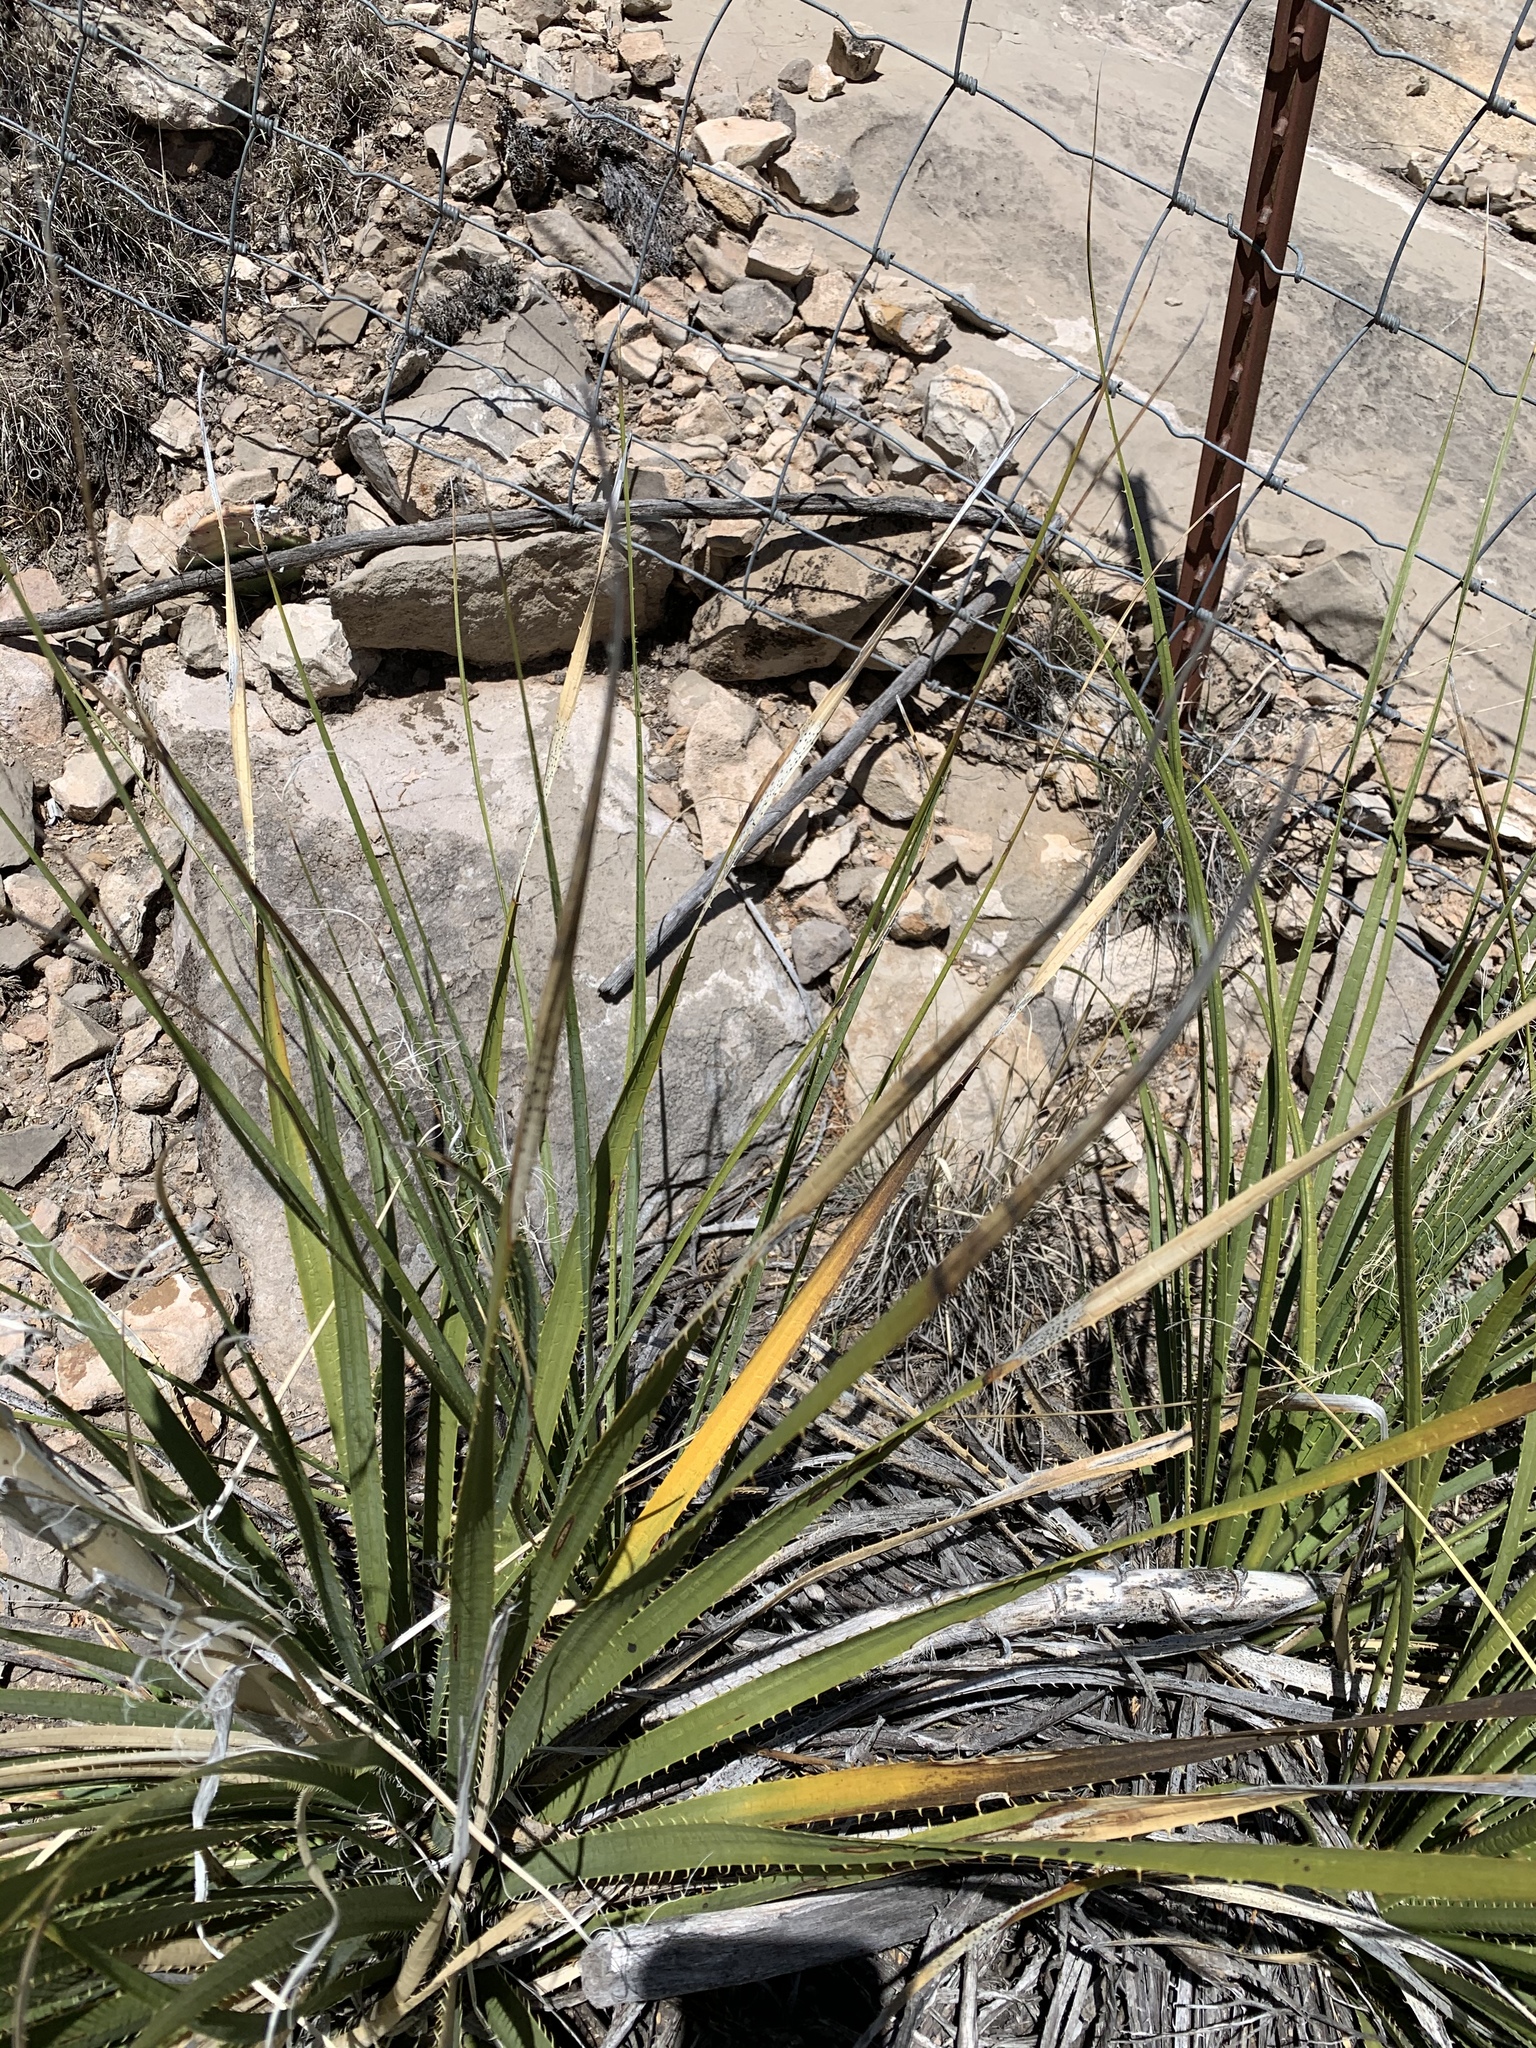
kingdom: Plantae
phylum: Tracheophyta
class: Liliopsida
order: Asparagales
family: Asparagaceae
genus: Dasylirion
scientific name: Dasylirion leiophyllum
